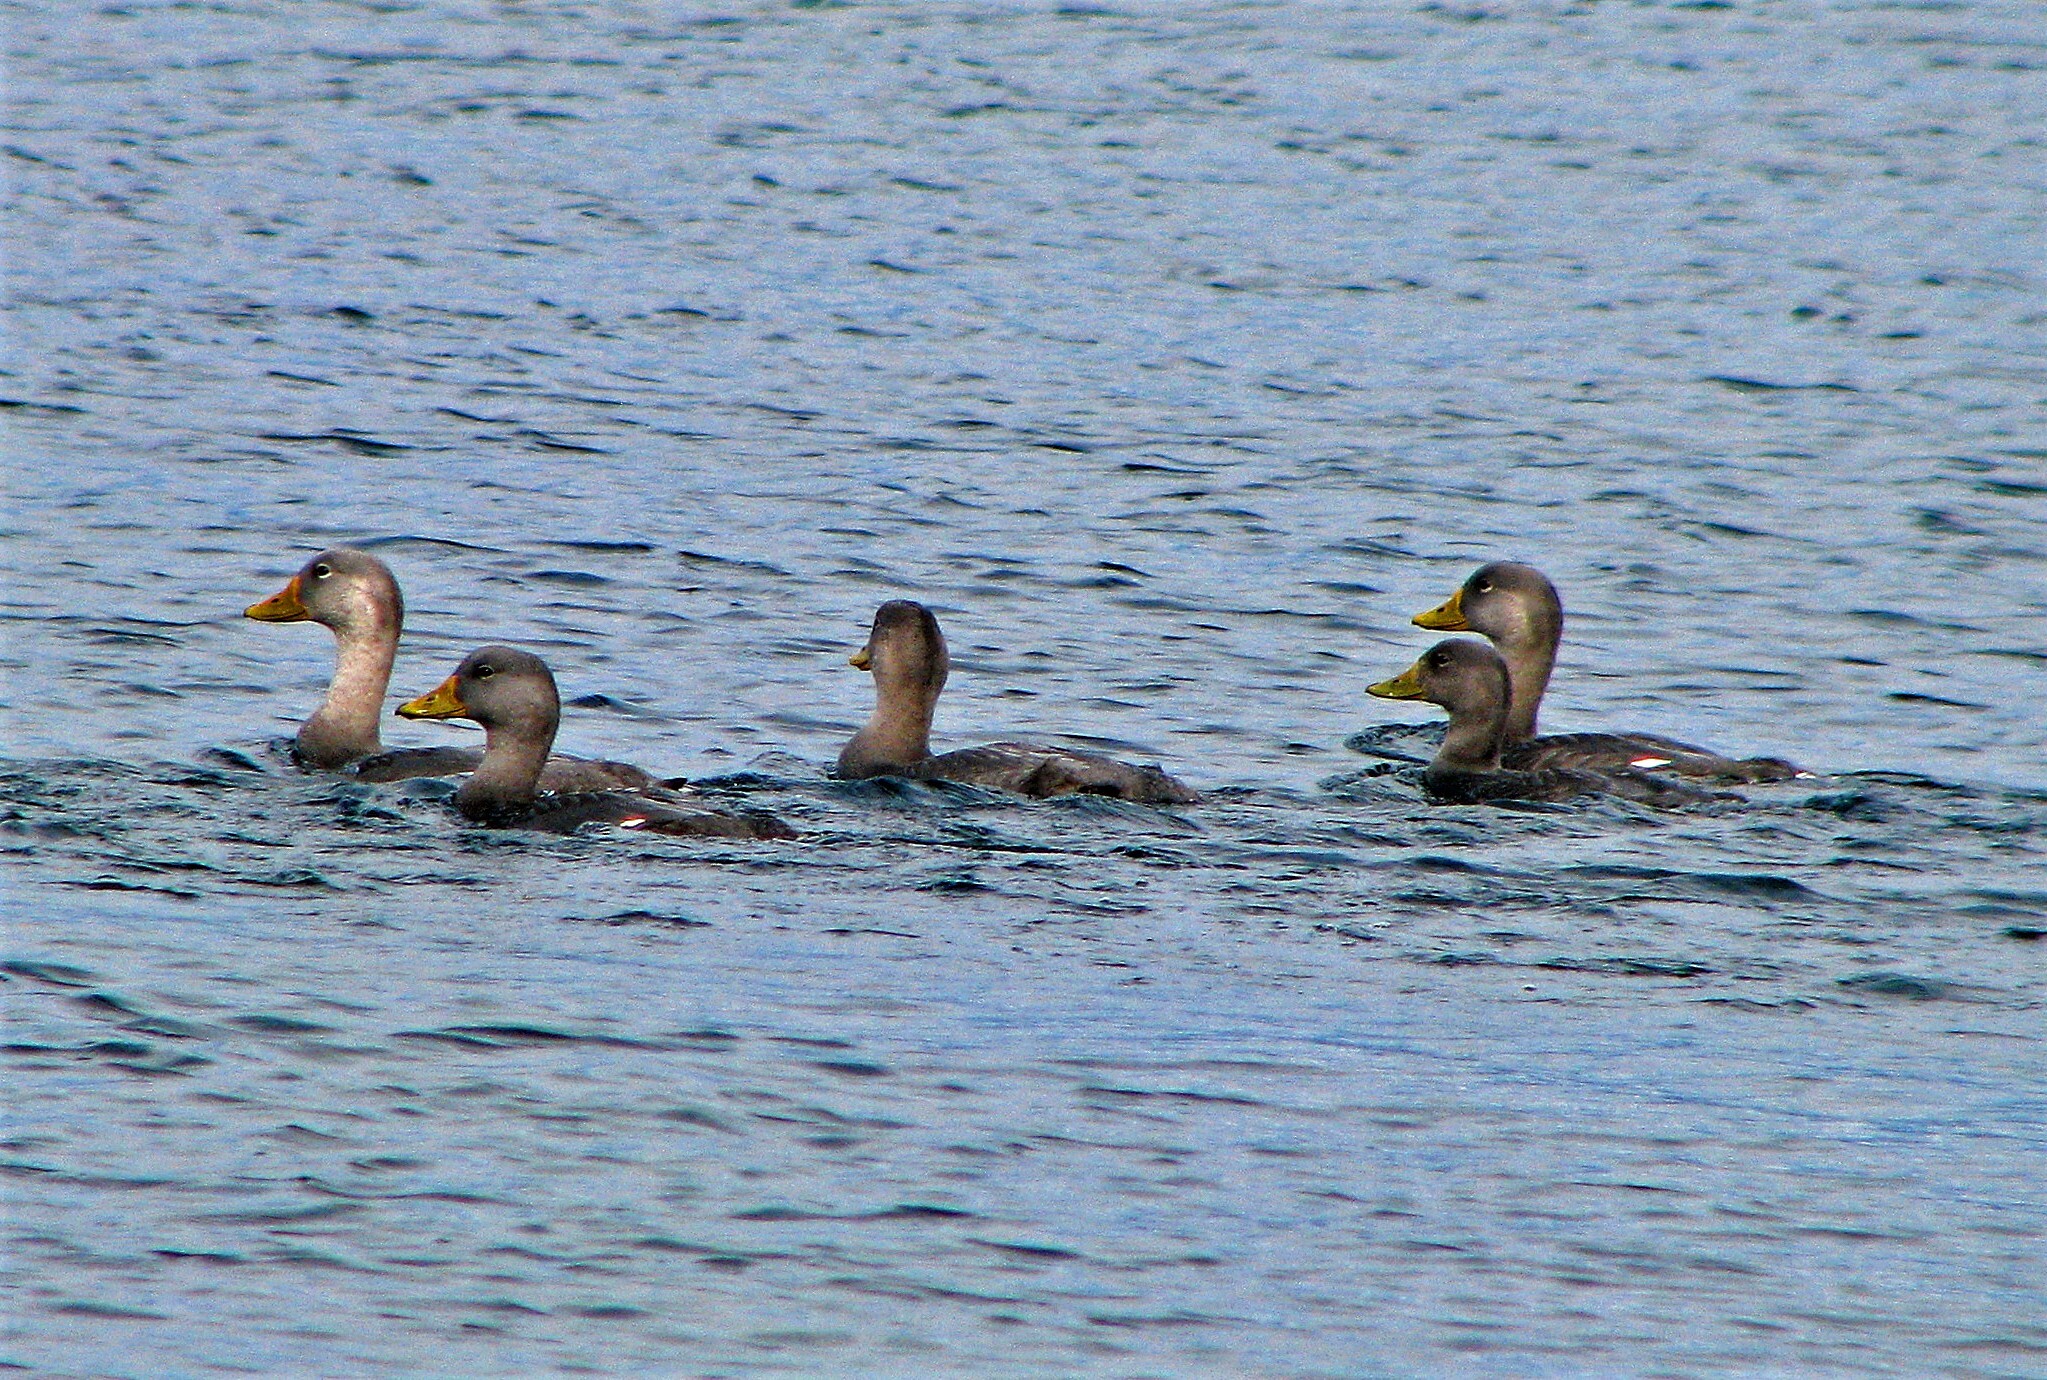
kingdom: Animalia
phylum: Chordata
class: Aves
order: Anseriformes
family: Anatidae
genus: Tachyeres
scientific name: Tachyeres pteneres
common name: Fuegian steamer duck
